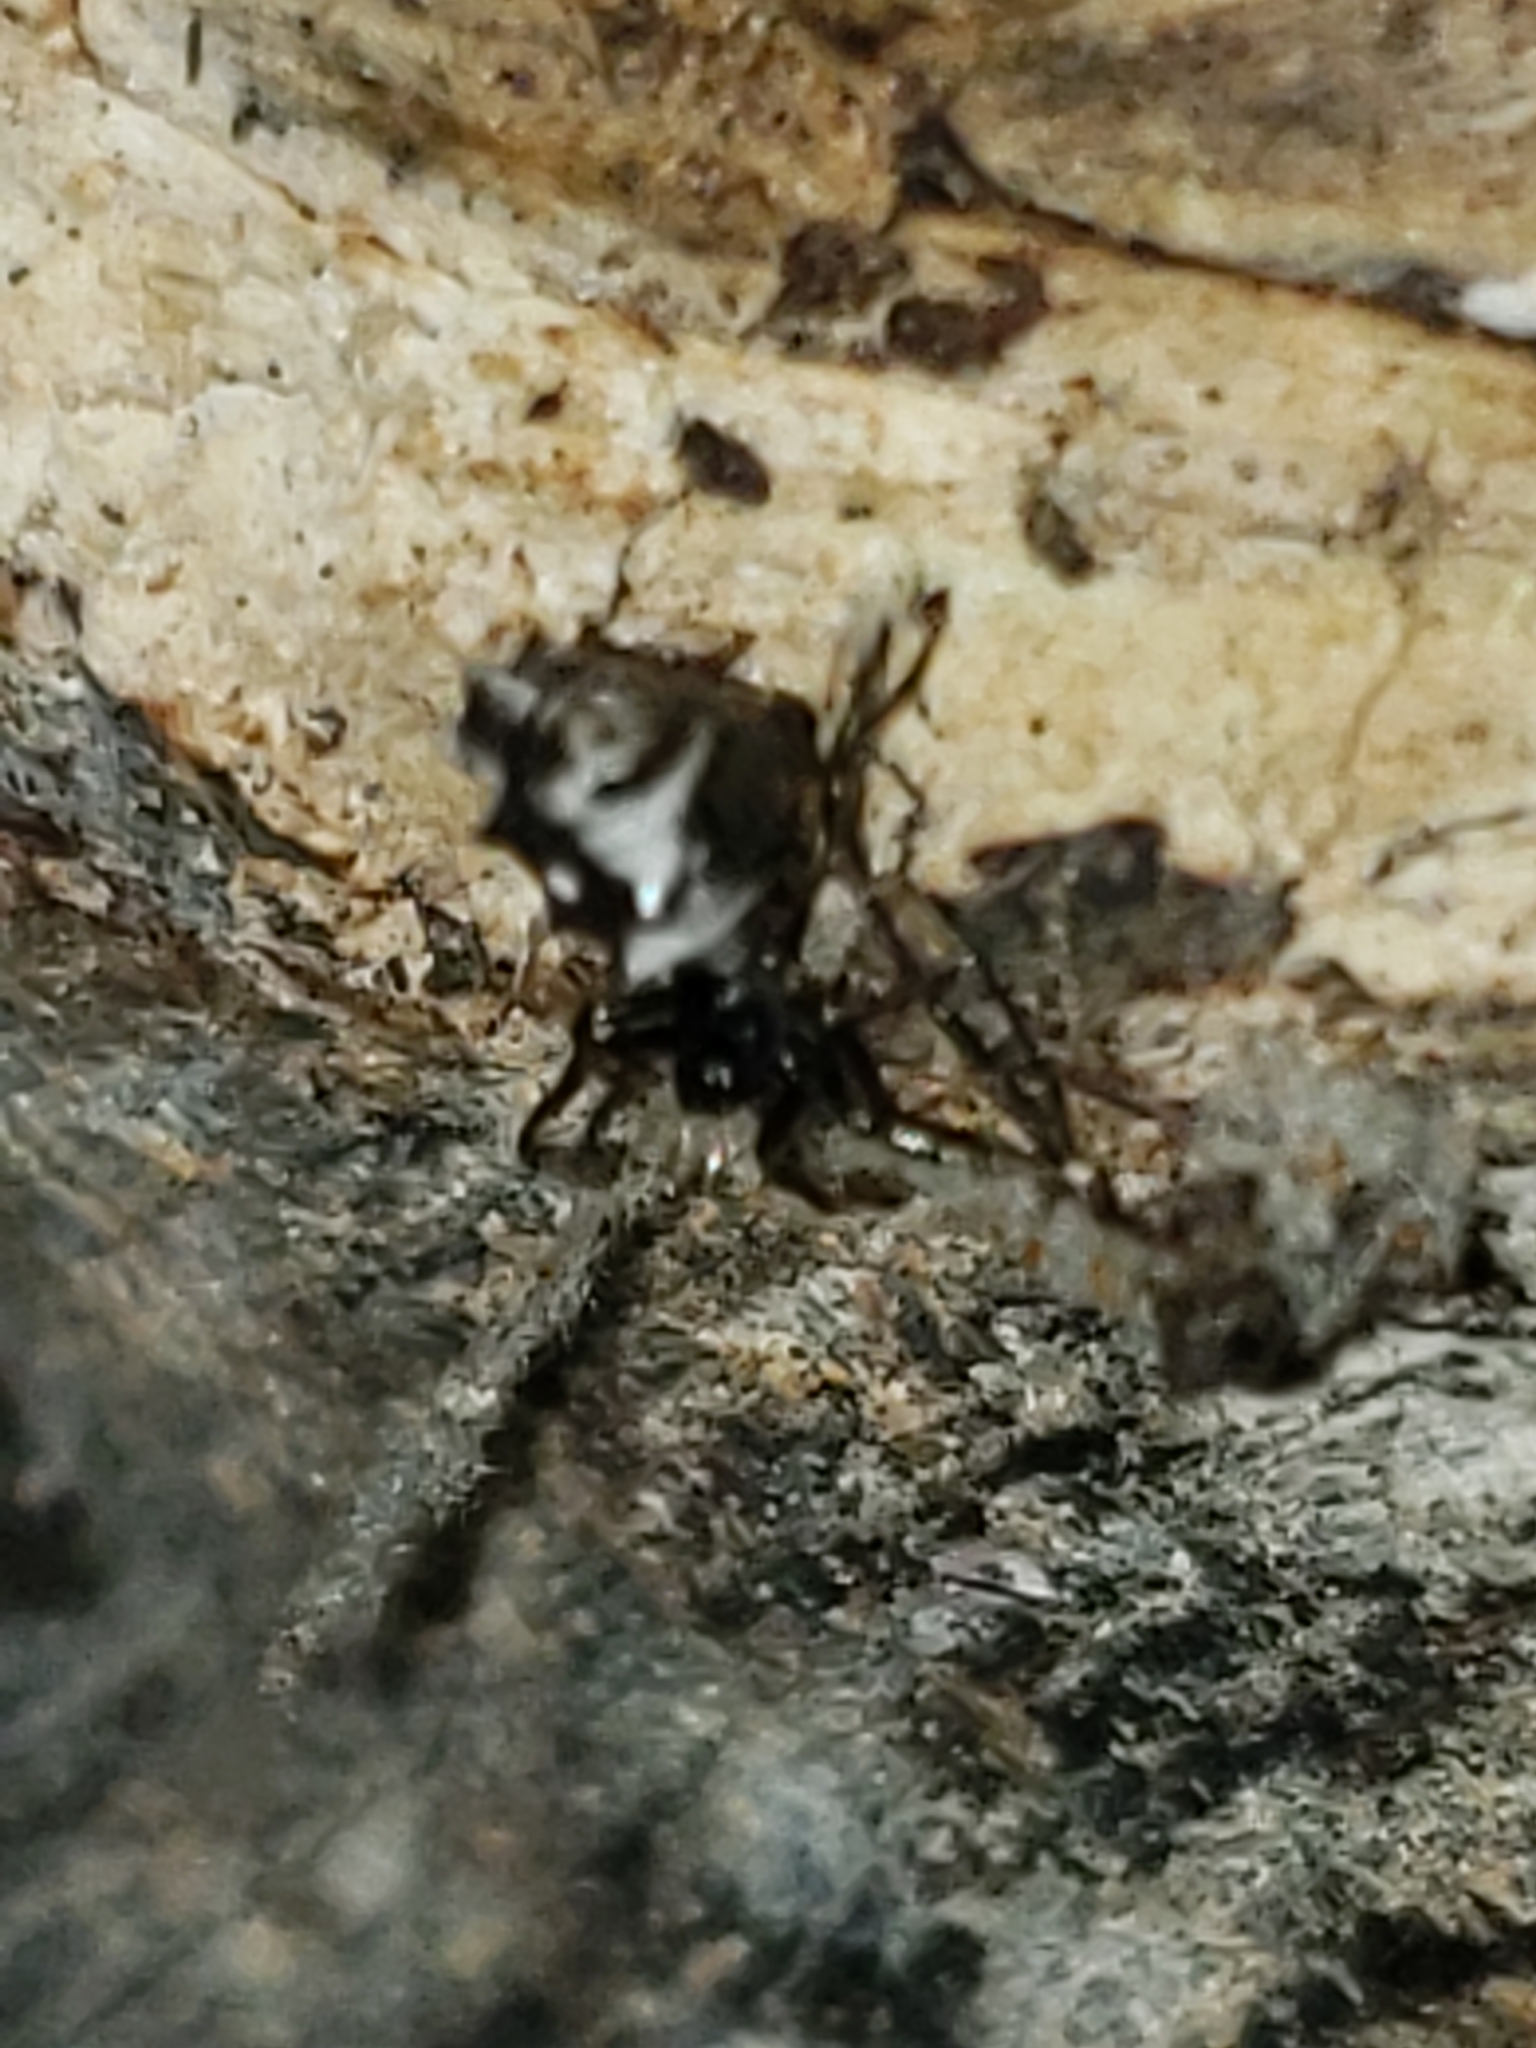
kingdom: Animalia
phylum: Arthropoda
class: Arachnida
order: Araneae
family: Araneidae
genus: Micrathena
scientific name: Micrathena gracilis
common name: Orb weavers
